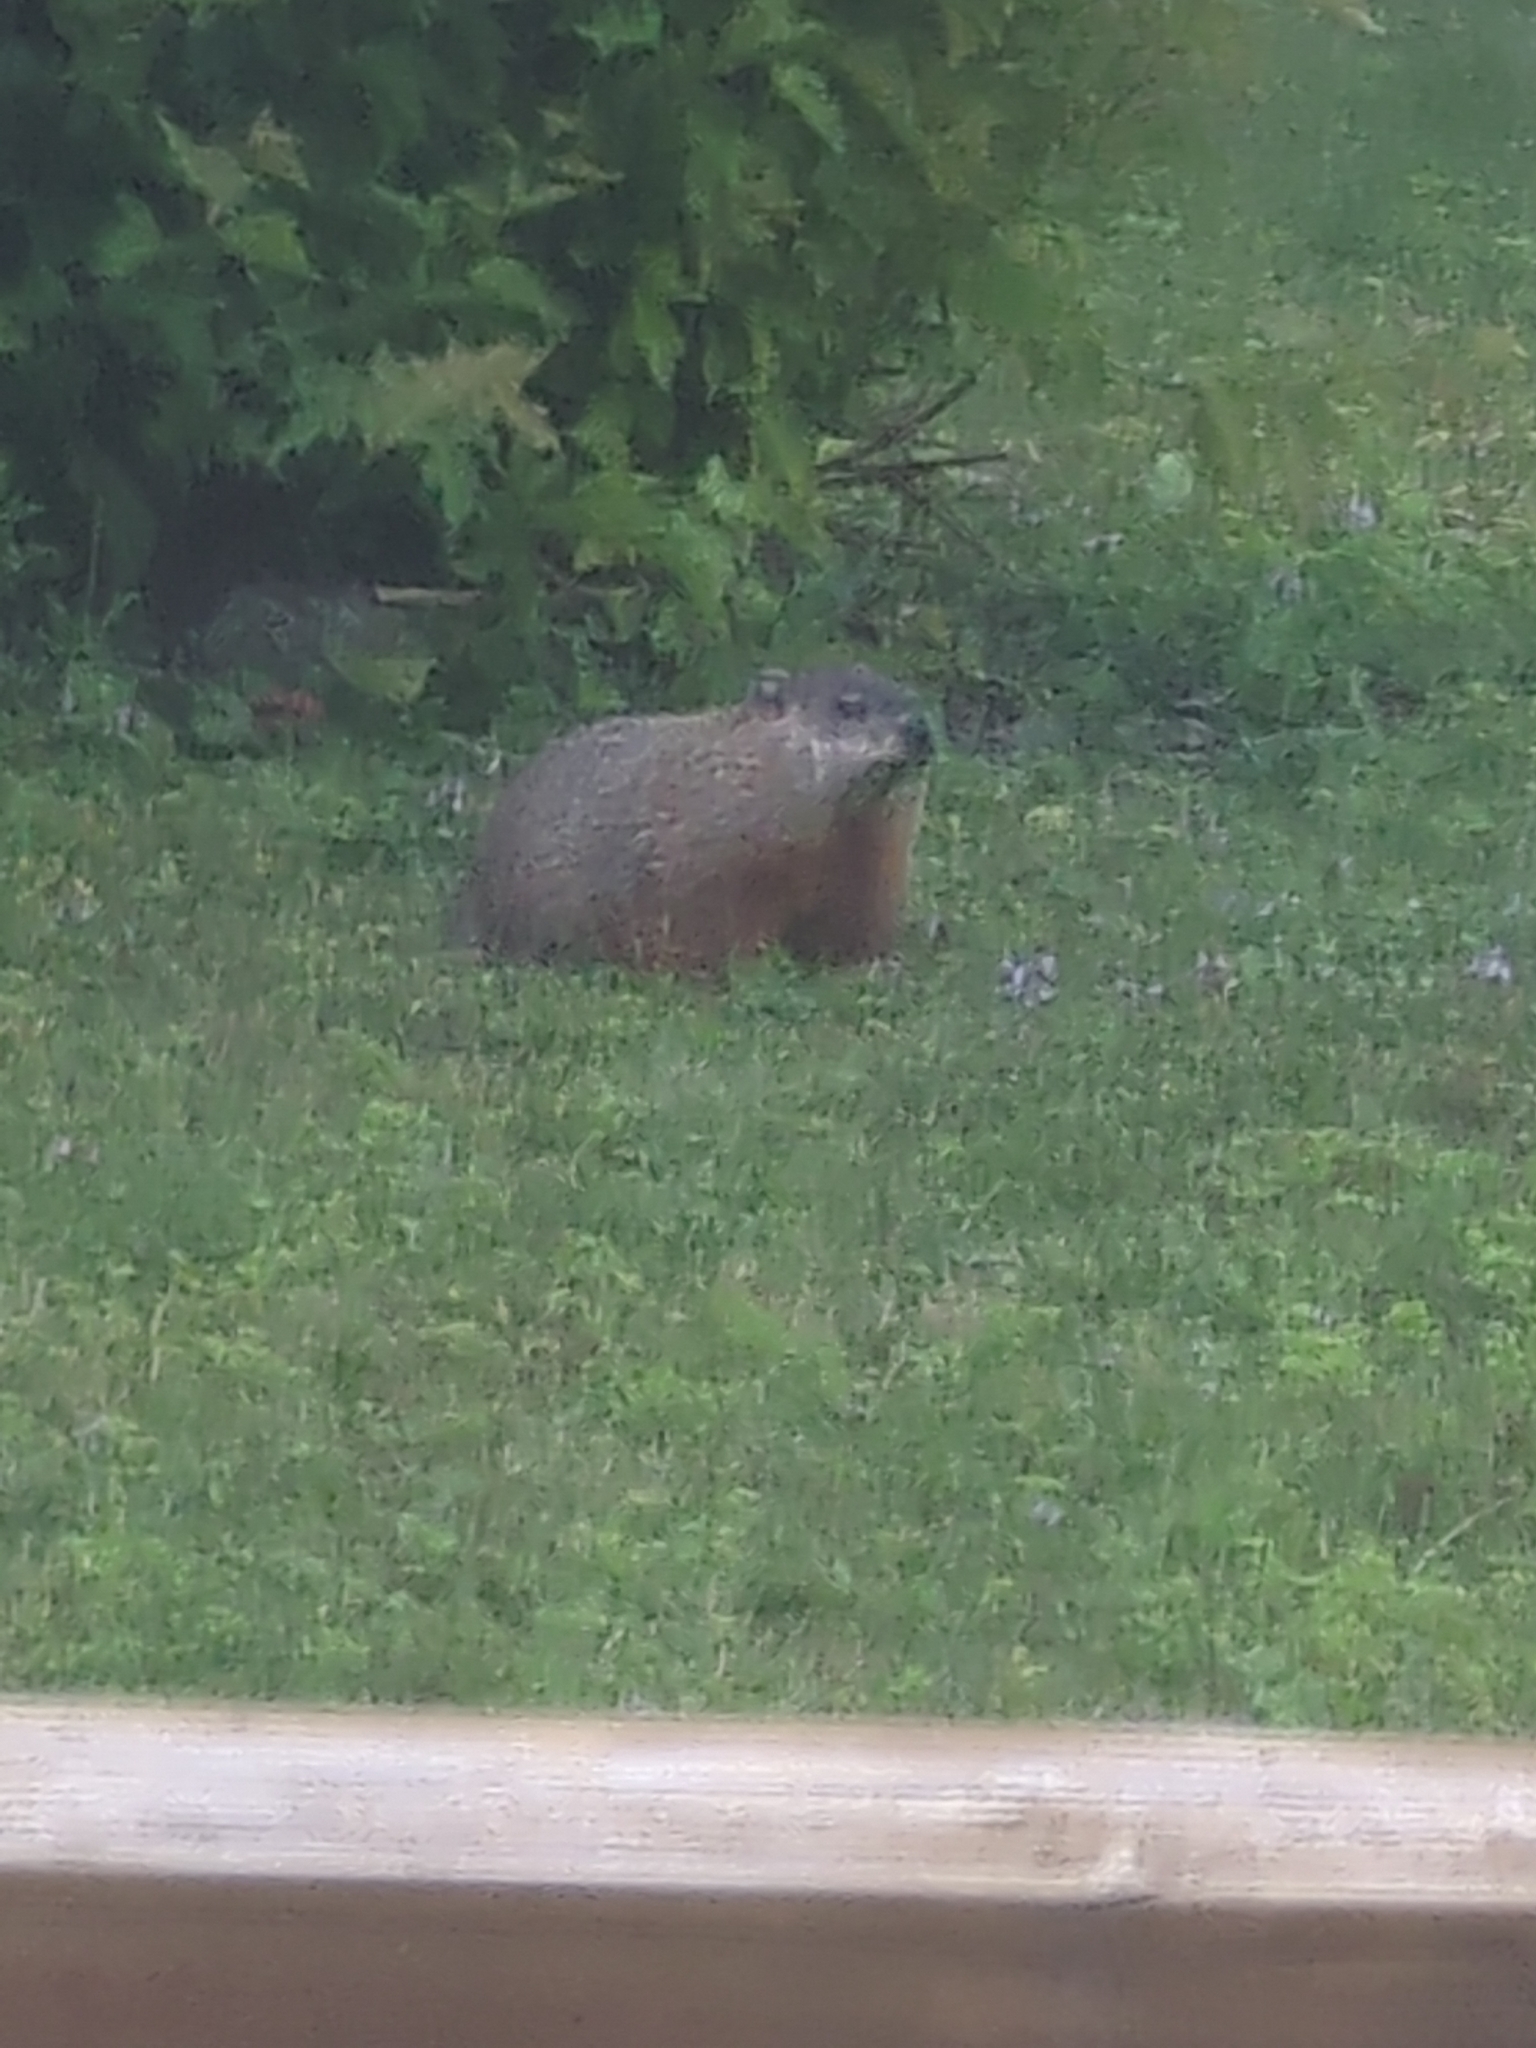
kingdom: Animalia
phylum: Chordata
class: Mammalia
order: Rodentia
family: Sciuridae
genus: Marmota
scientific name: Marmota monax
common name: Groundhog
